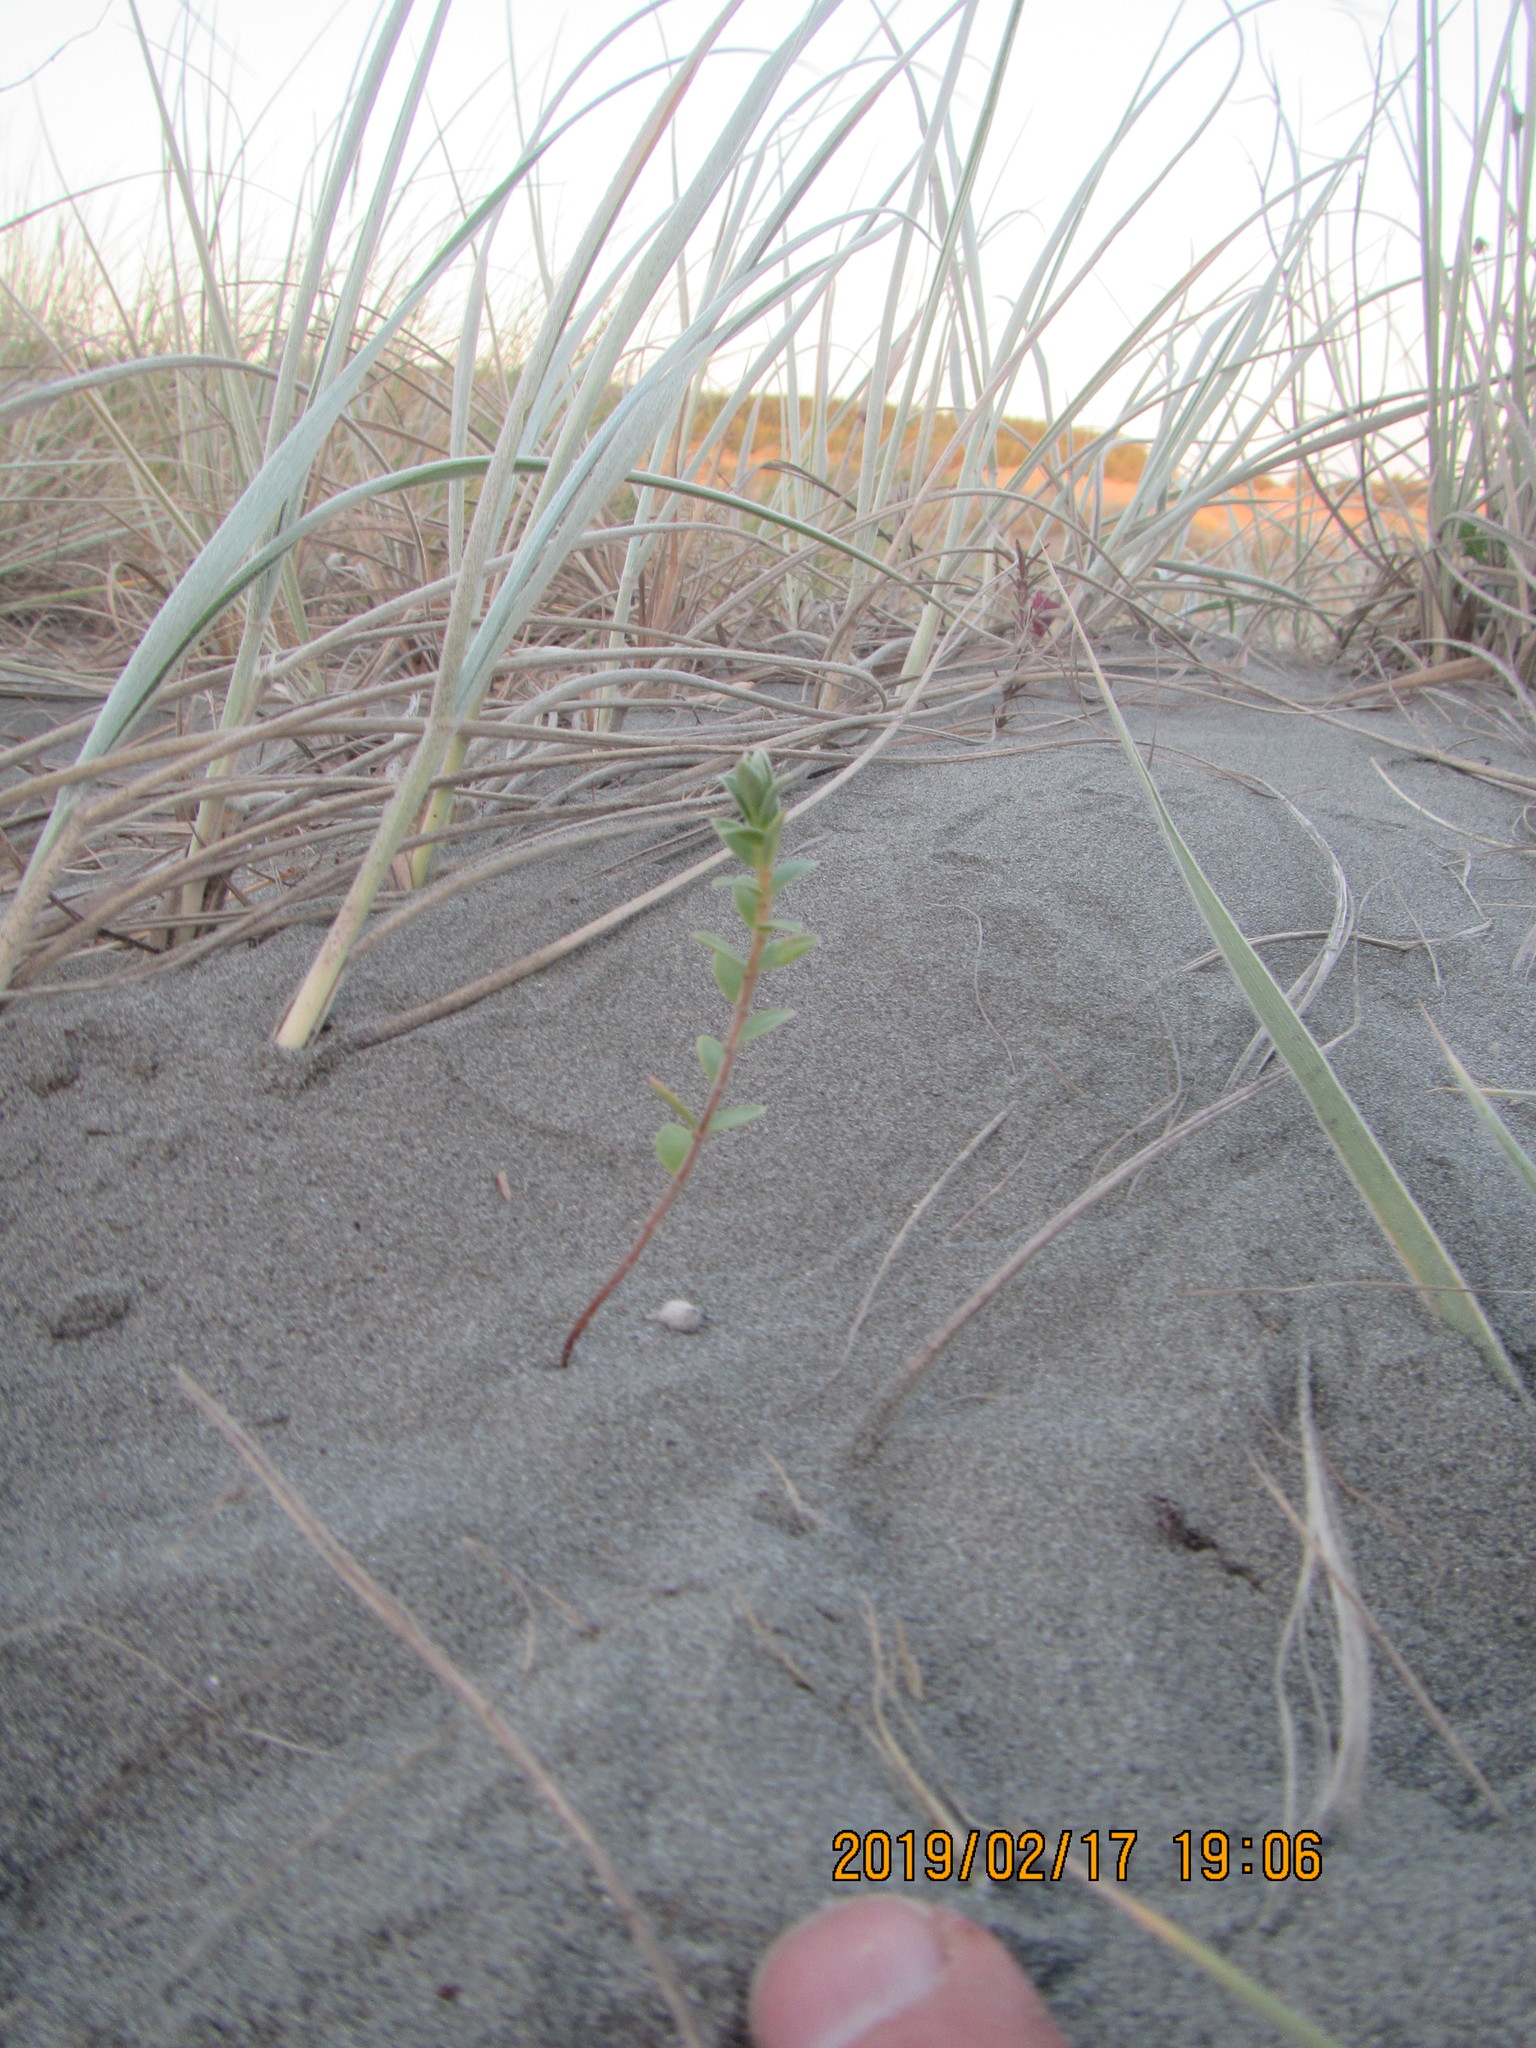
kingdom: Plantae
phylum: Tracheophyta
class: Magnoliopsida
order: Malvales
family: Thymelaeaceae
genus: Pimelea
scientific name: Pimelea villosa
